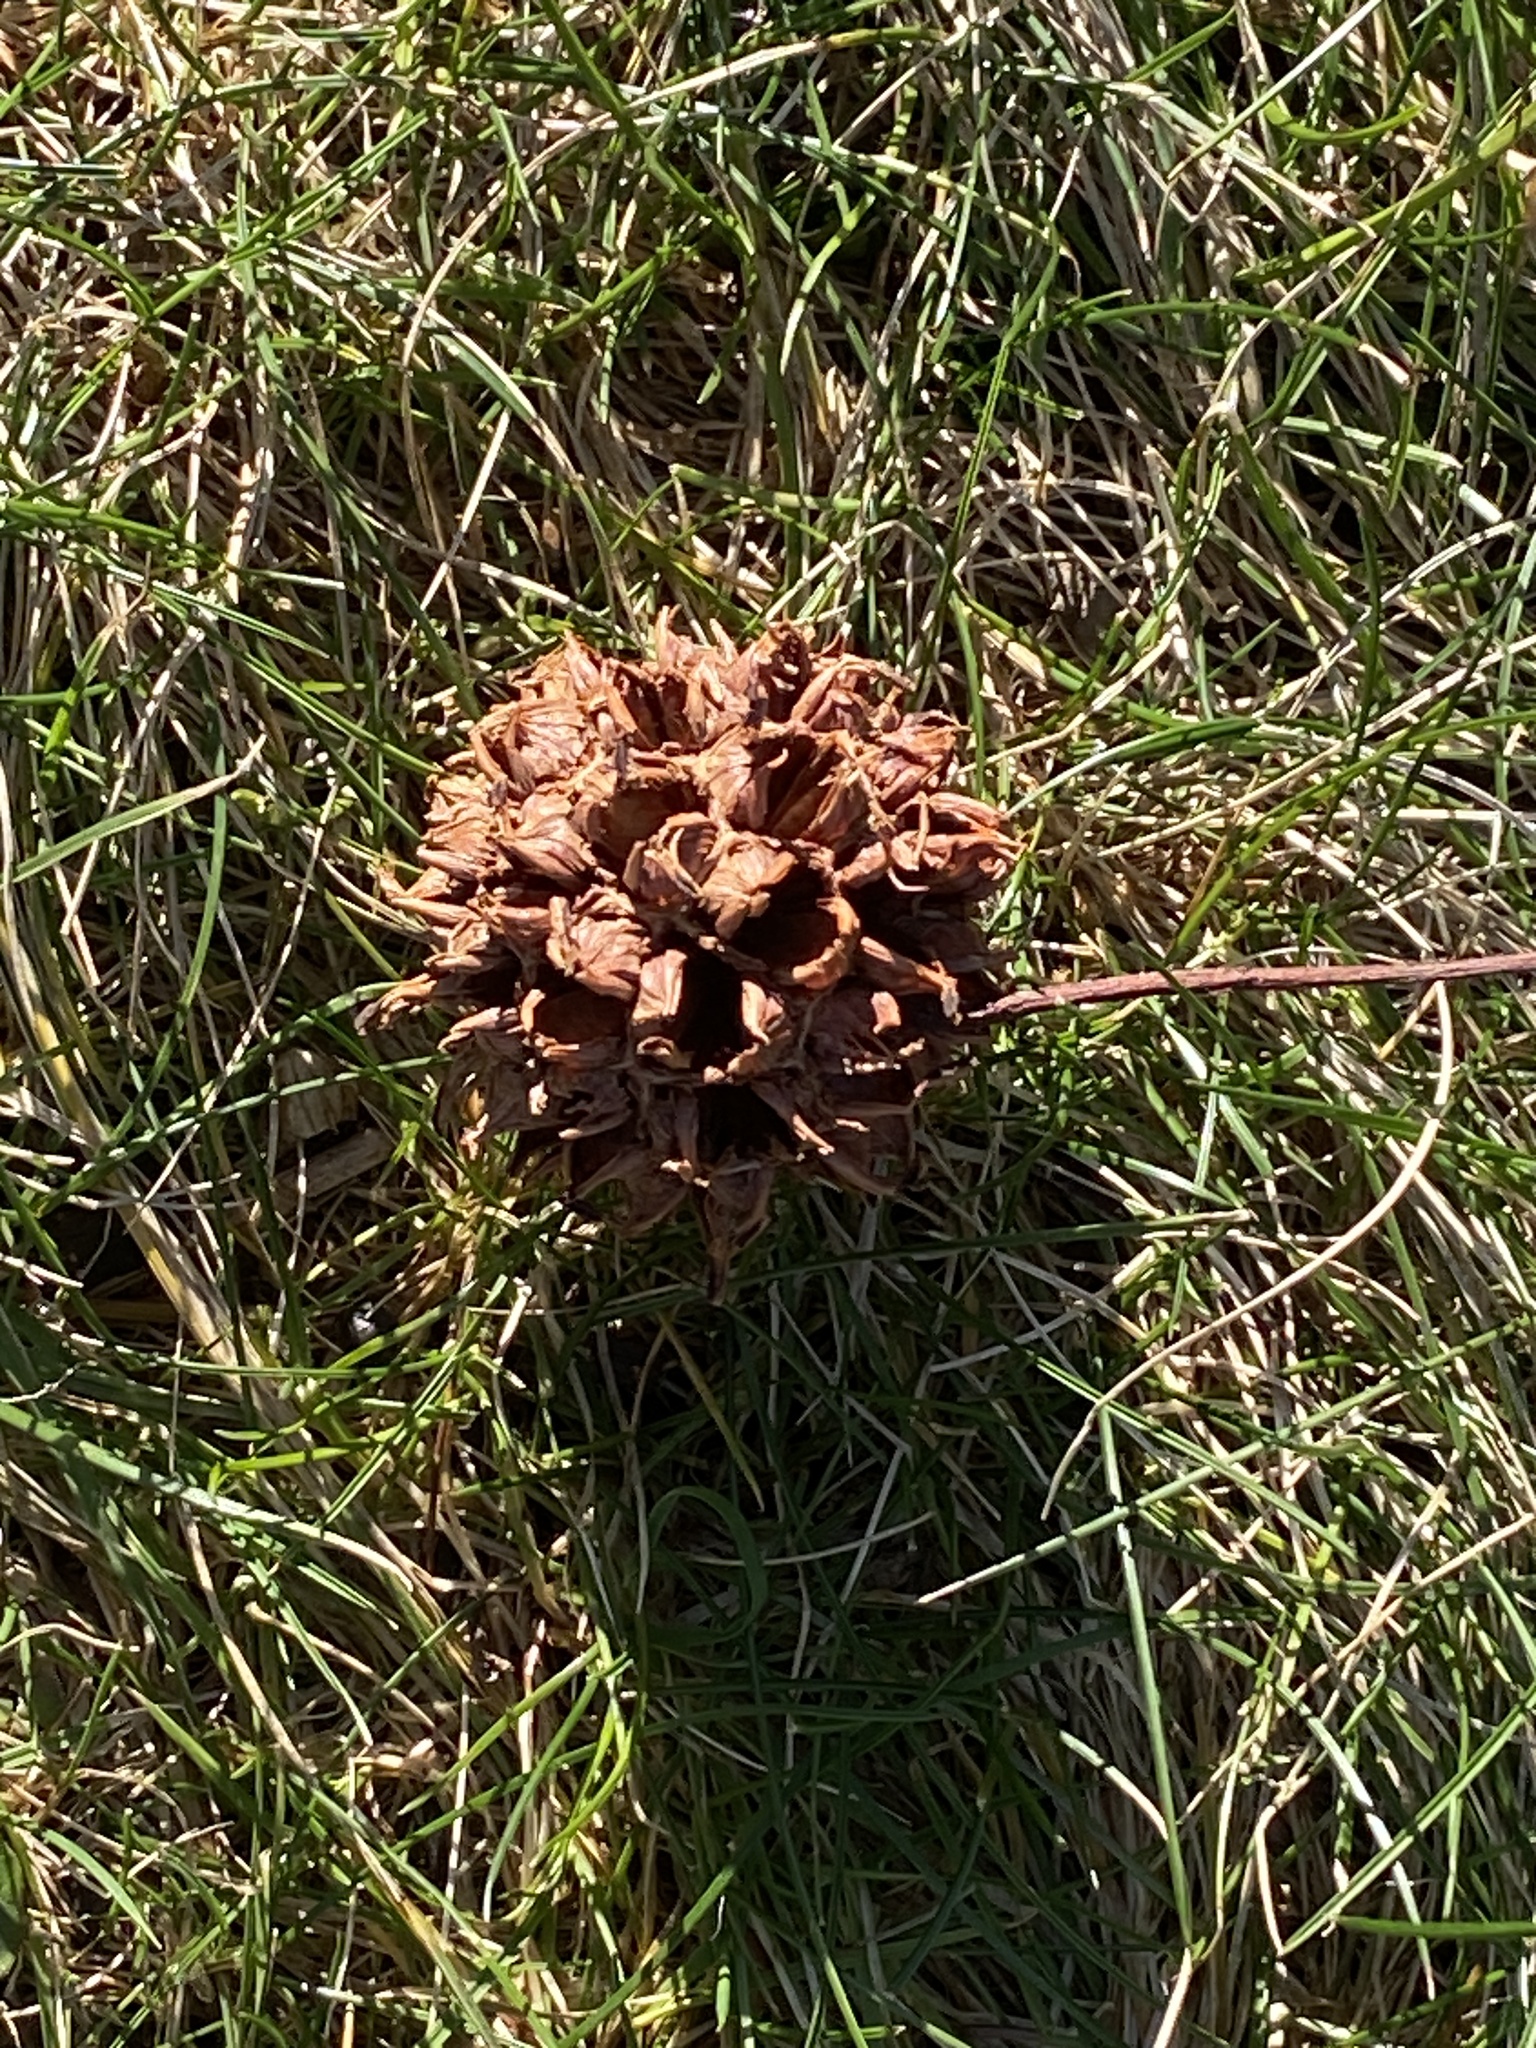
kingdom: Plantae
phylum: Tracheophyta
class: Magnoliopsida
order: Saxifragales
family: Altingiaceae
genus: Liquidambar
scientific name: Liquidambar styraciflua
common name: Sweet gum
